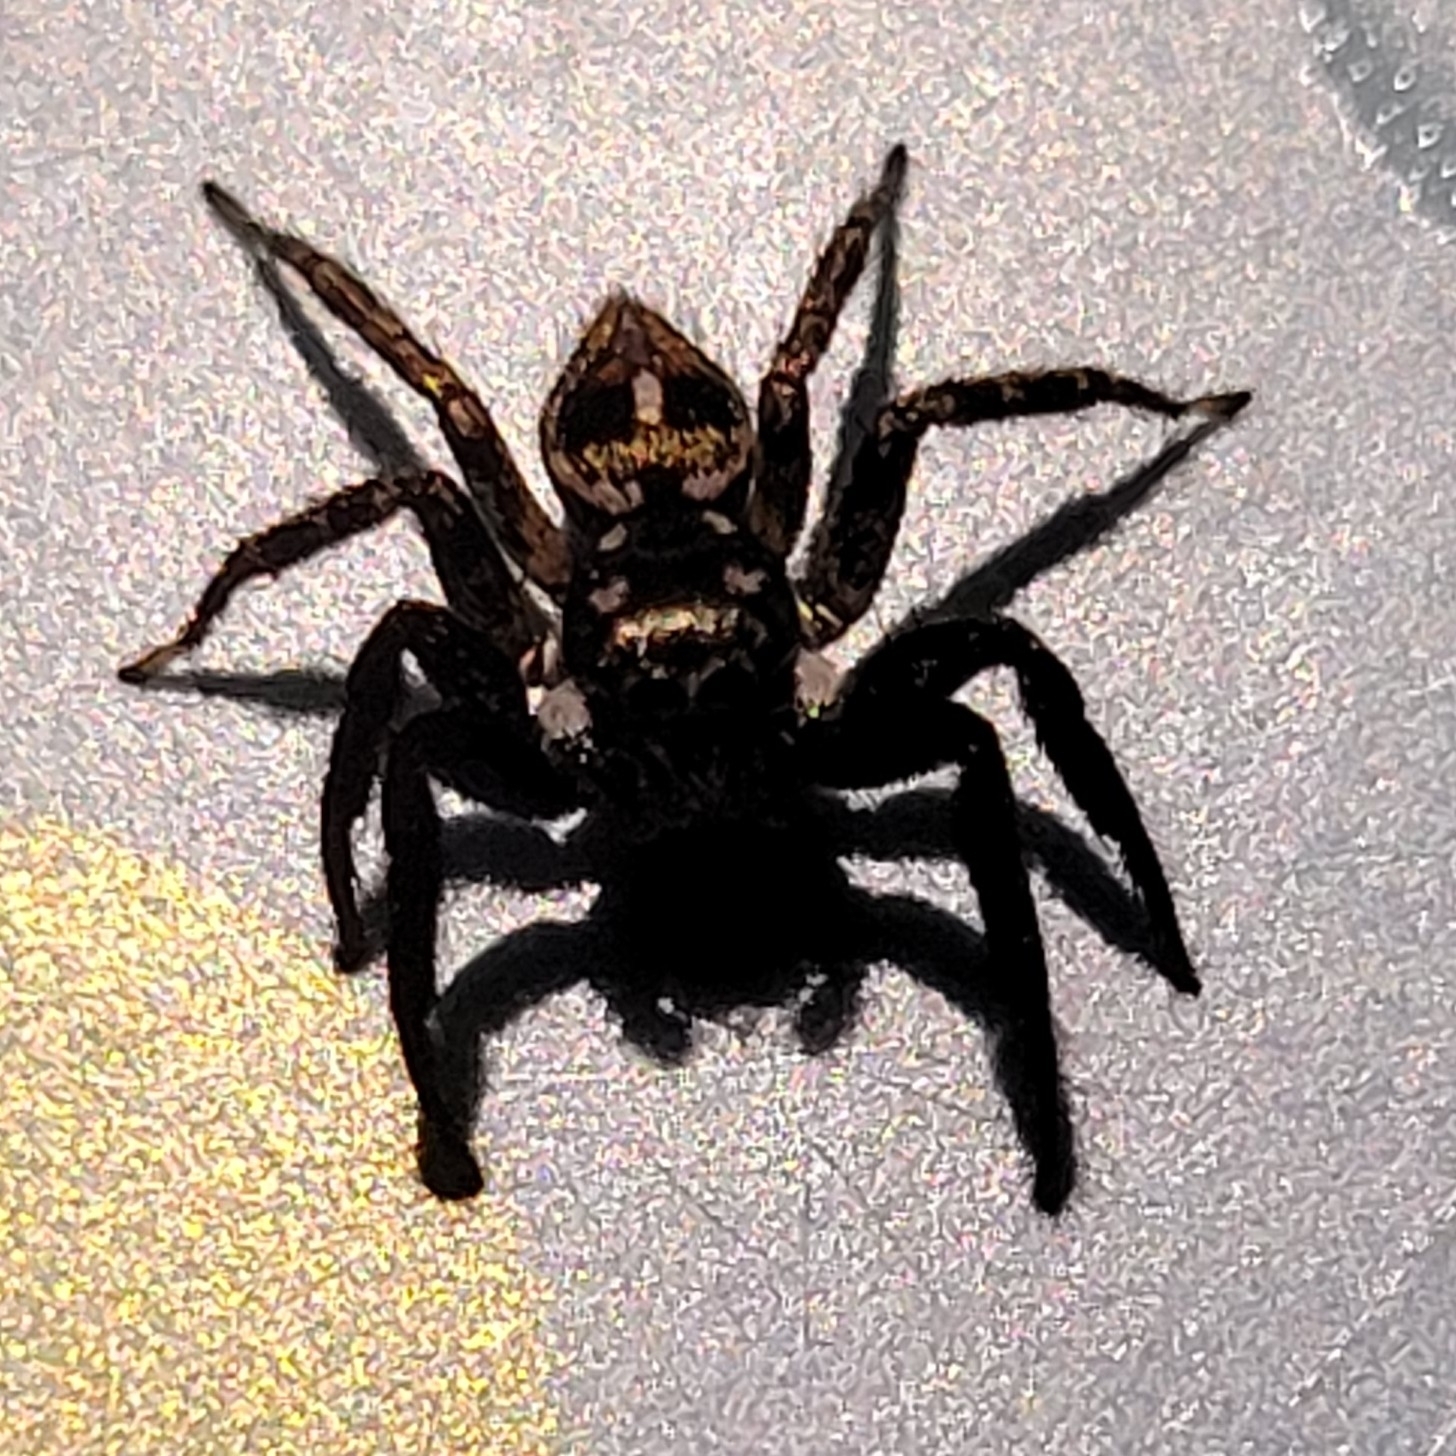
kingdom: Animalia
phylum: Arthropoda
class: Arachnida
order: Araneae
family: Salticidae
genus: Anasaitis
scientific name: Anasaitis canosa
